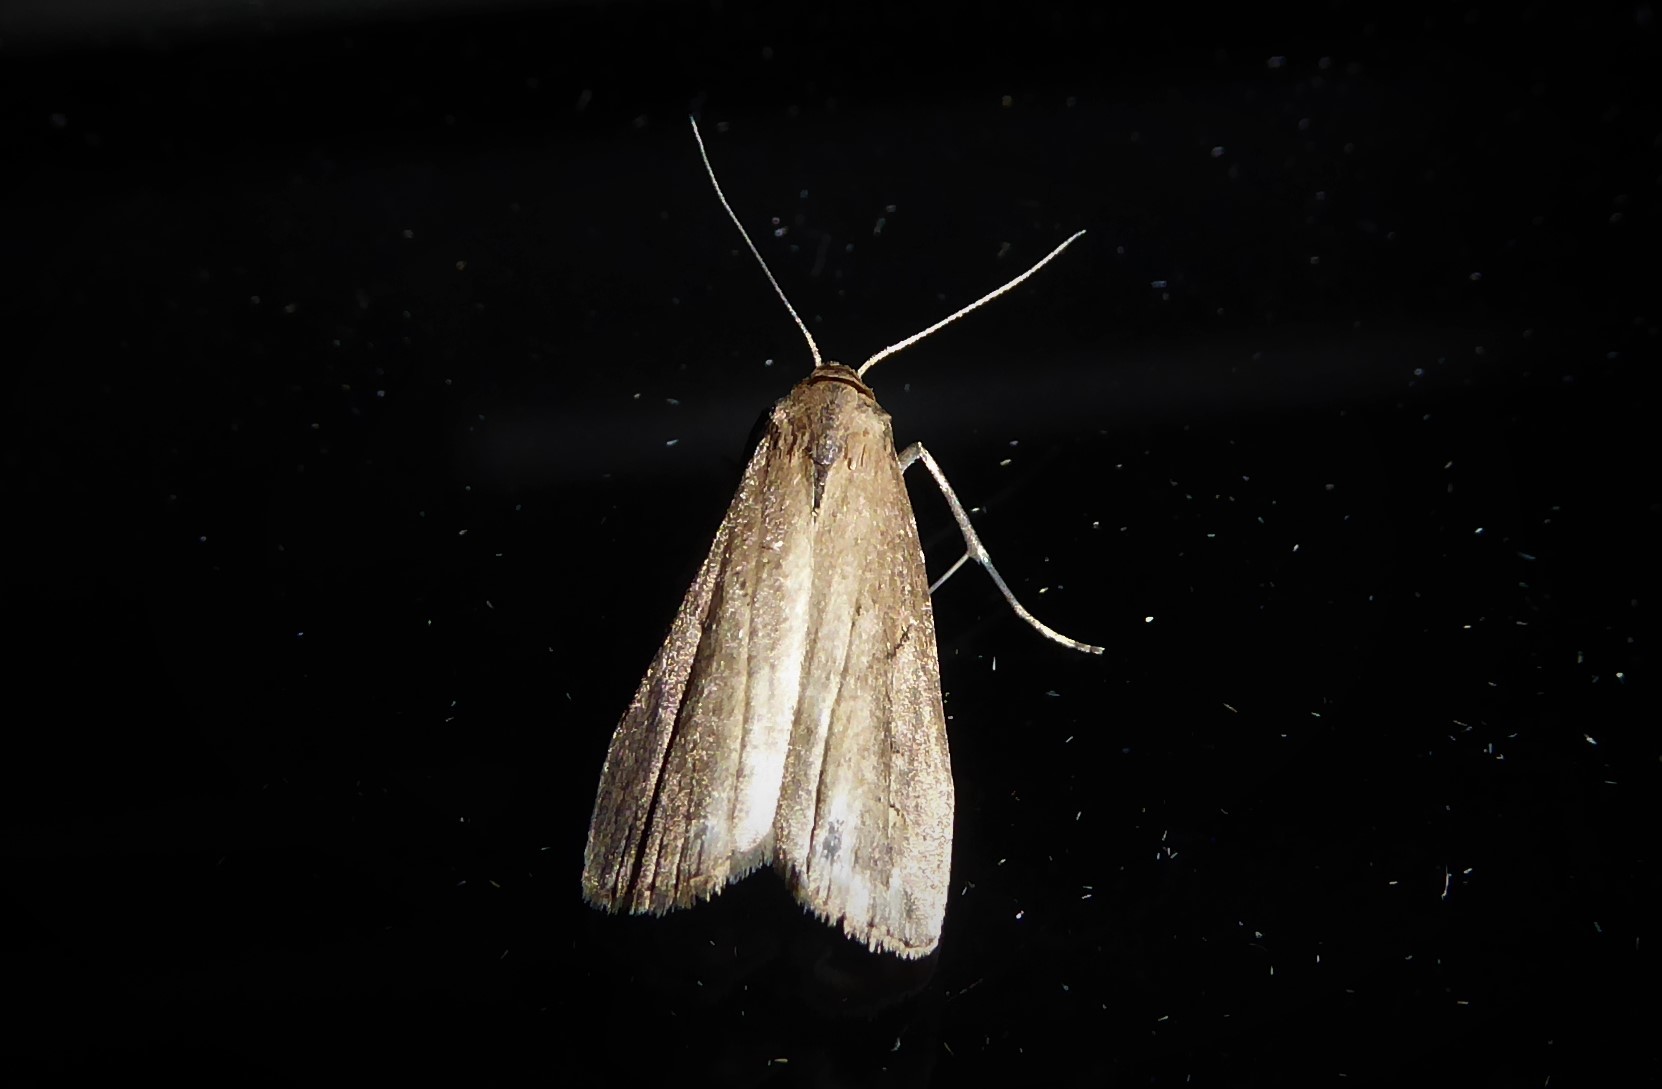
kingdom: Animalia
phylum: Arthropoda
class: Insecta
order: Lepidoptera
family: Erebidae
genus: Schrankia
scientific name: Schrankia costaestrigalis
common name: Pinion-streaked snout
